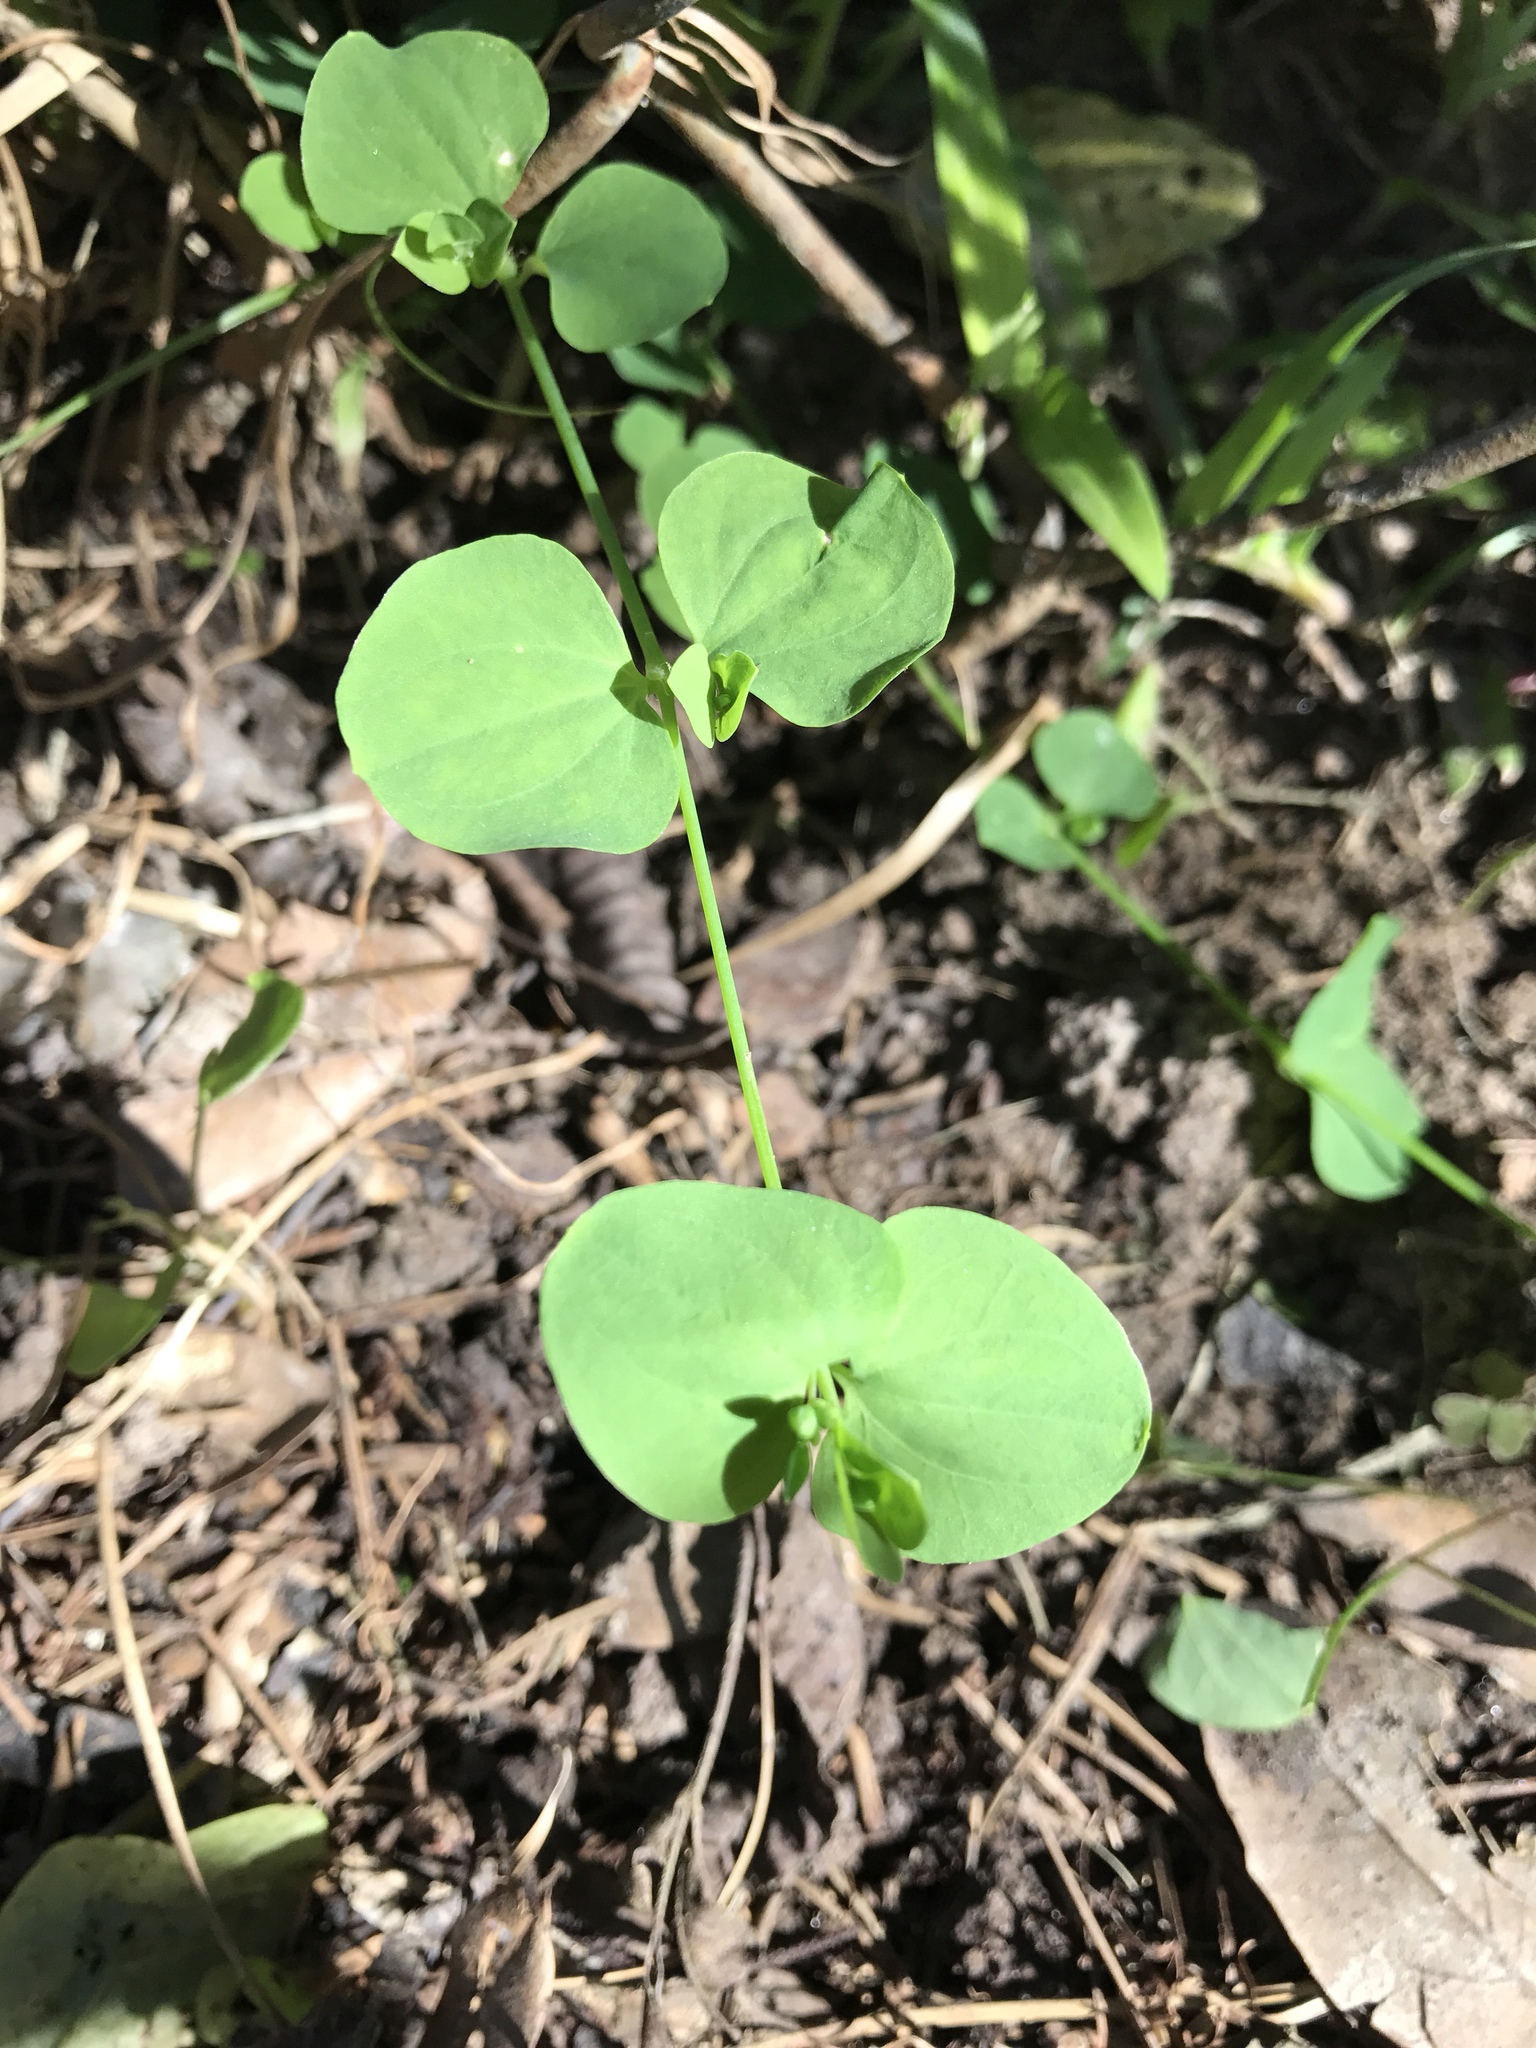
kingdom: Plantae
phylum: Tracheophyta
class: Magnoliopsida
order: Caryophyllales
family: Caryophyllaceae
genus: Drymaria
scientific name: Drymaria cordata
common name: Whitesnow
